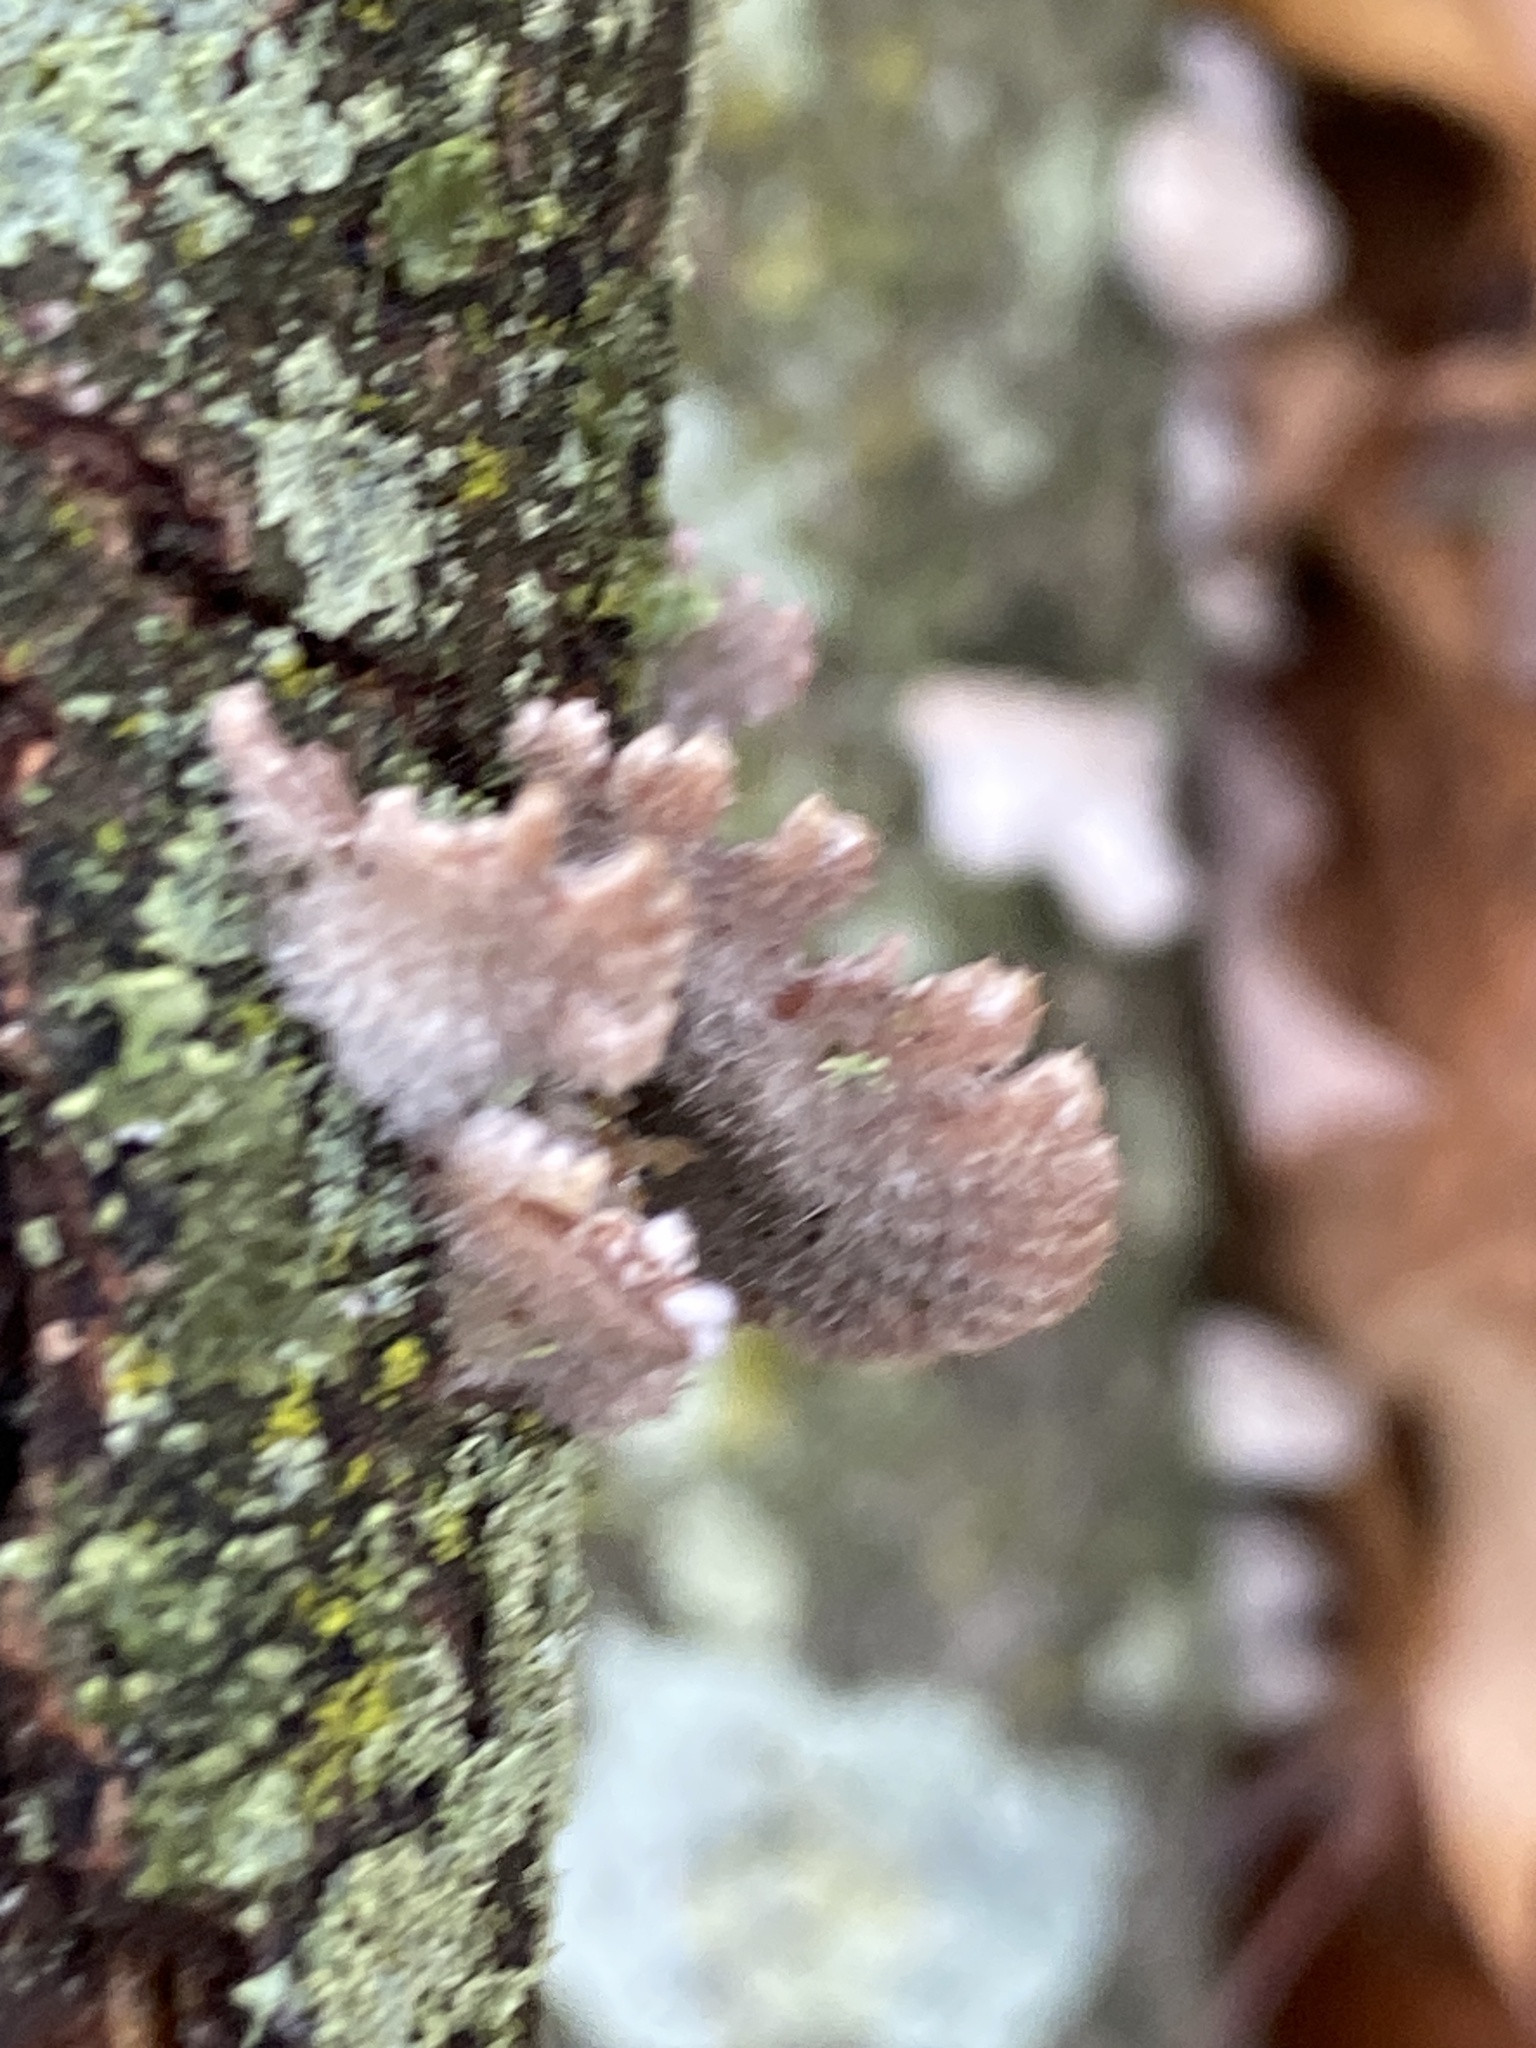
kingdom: Fungi
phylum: Basidiomycota
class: Agaricomycetes
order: Agaricales
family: Schizophyllaceae
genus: Schizophyllum
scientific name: Schizophyllum commune
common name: Common porecrust
